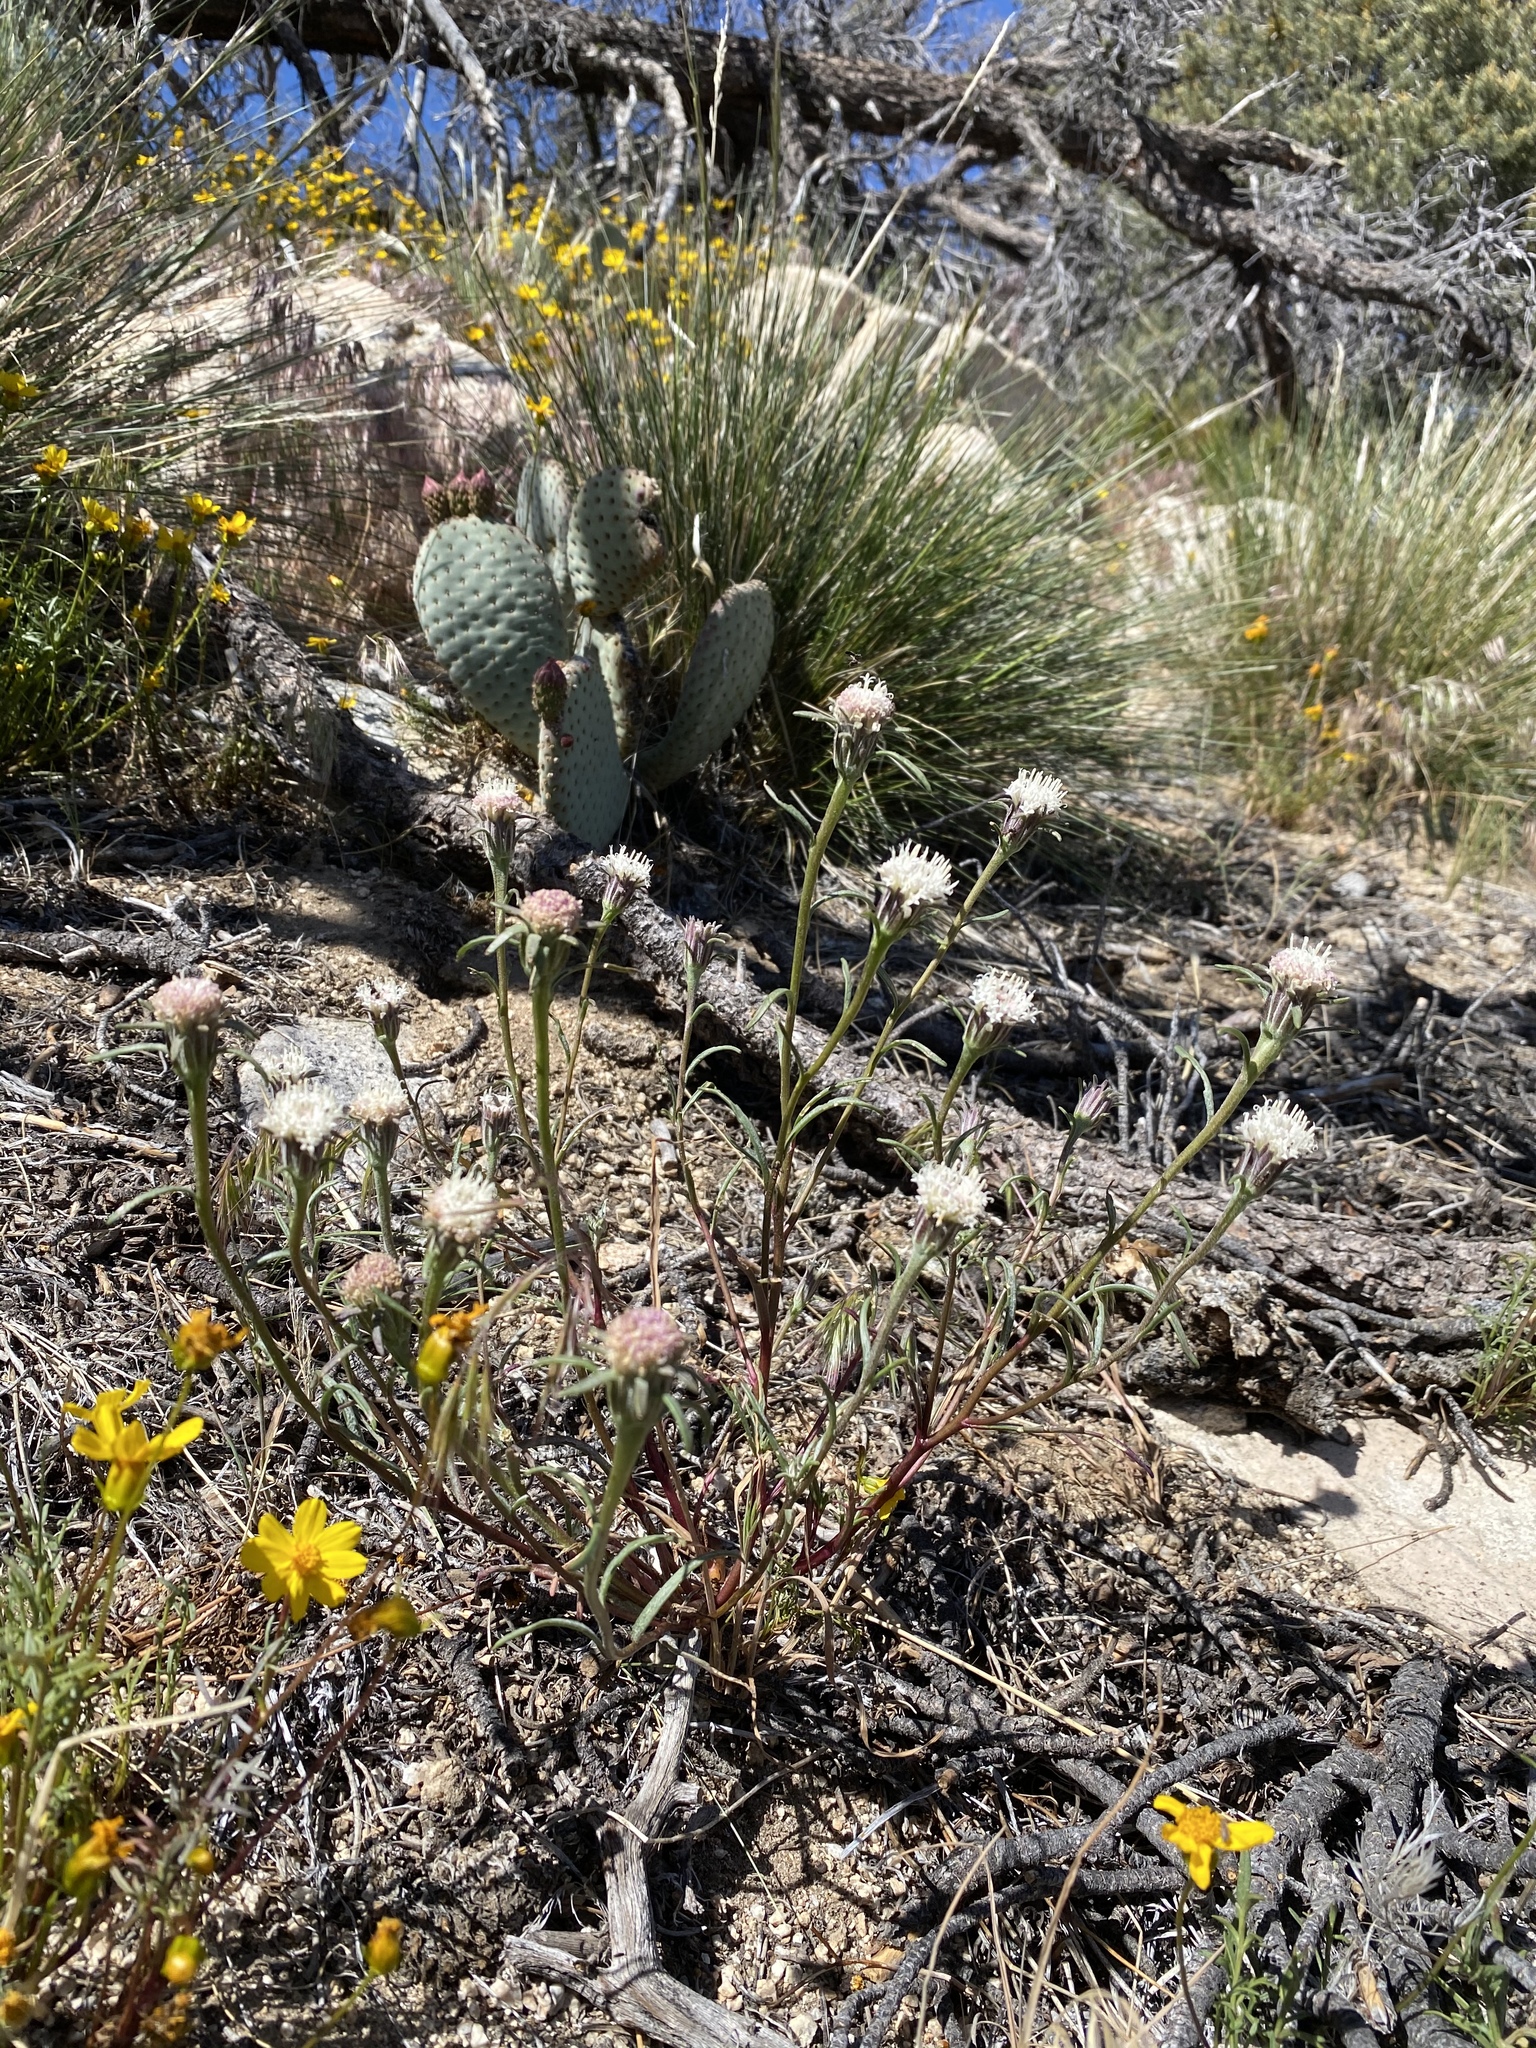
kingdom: Plantae
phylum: Tracheophyta
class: Magnoliopsida
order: Asterales
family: Asteraceae
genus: Chaenactis
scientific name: Chaenactis xantiana
